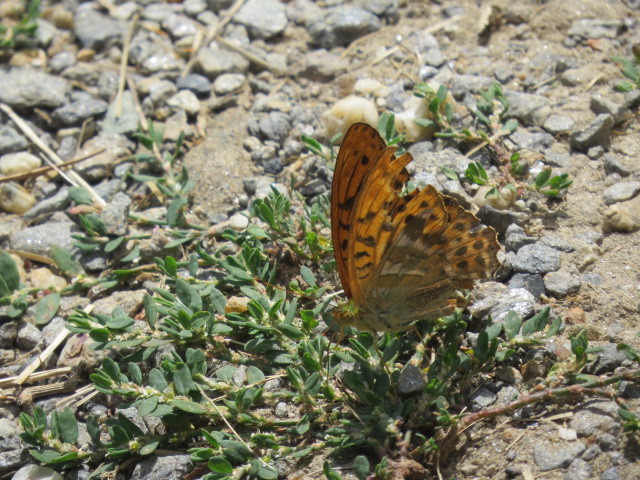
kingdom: Animalia
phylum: Arthropoda
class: Insecta
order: Lepidoptera
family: Nymphalidae
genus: Argynnis
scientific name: Argynnis paphia
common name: Silver-washed fritillary
